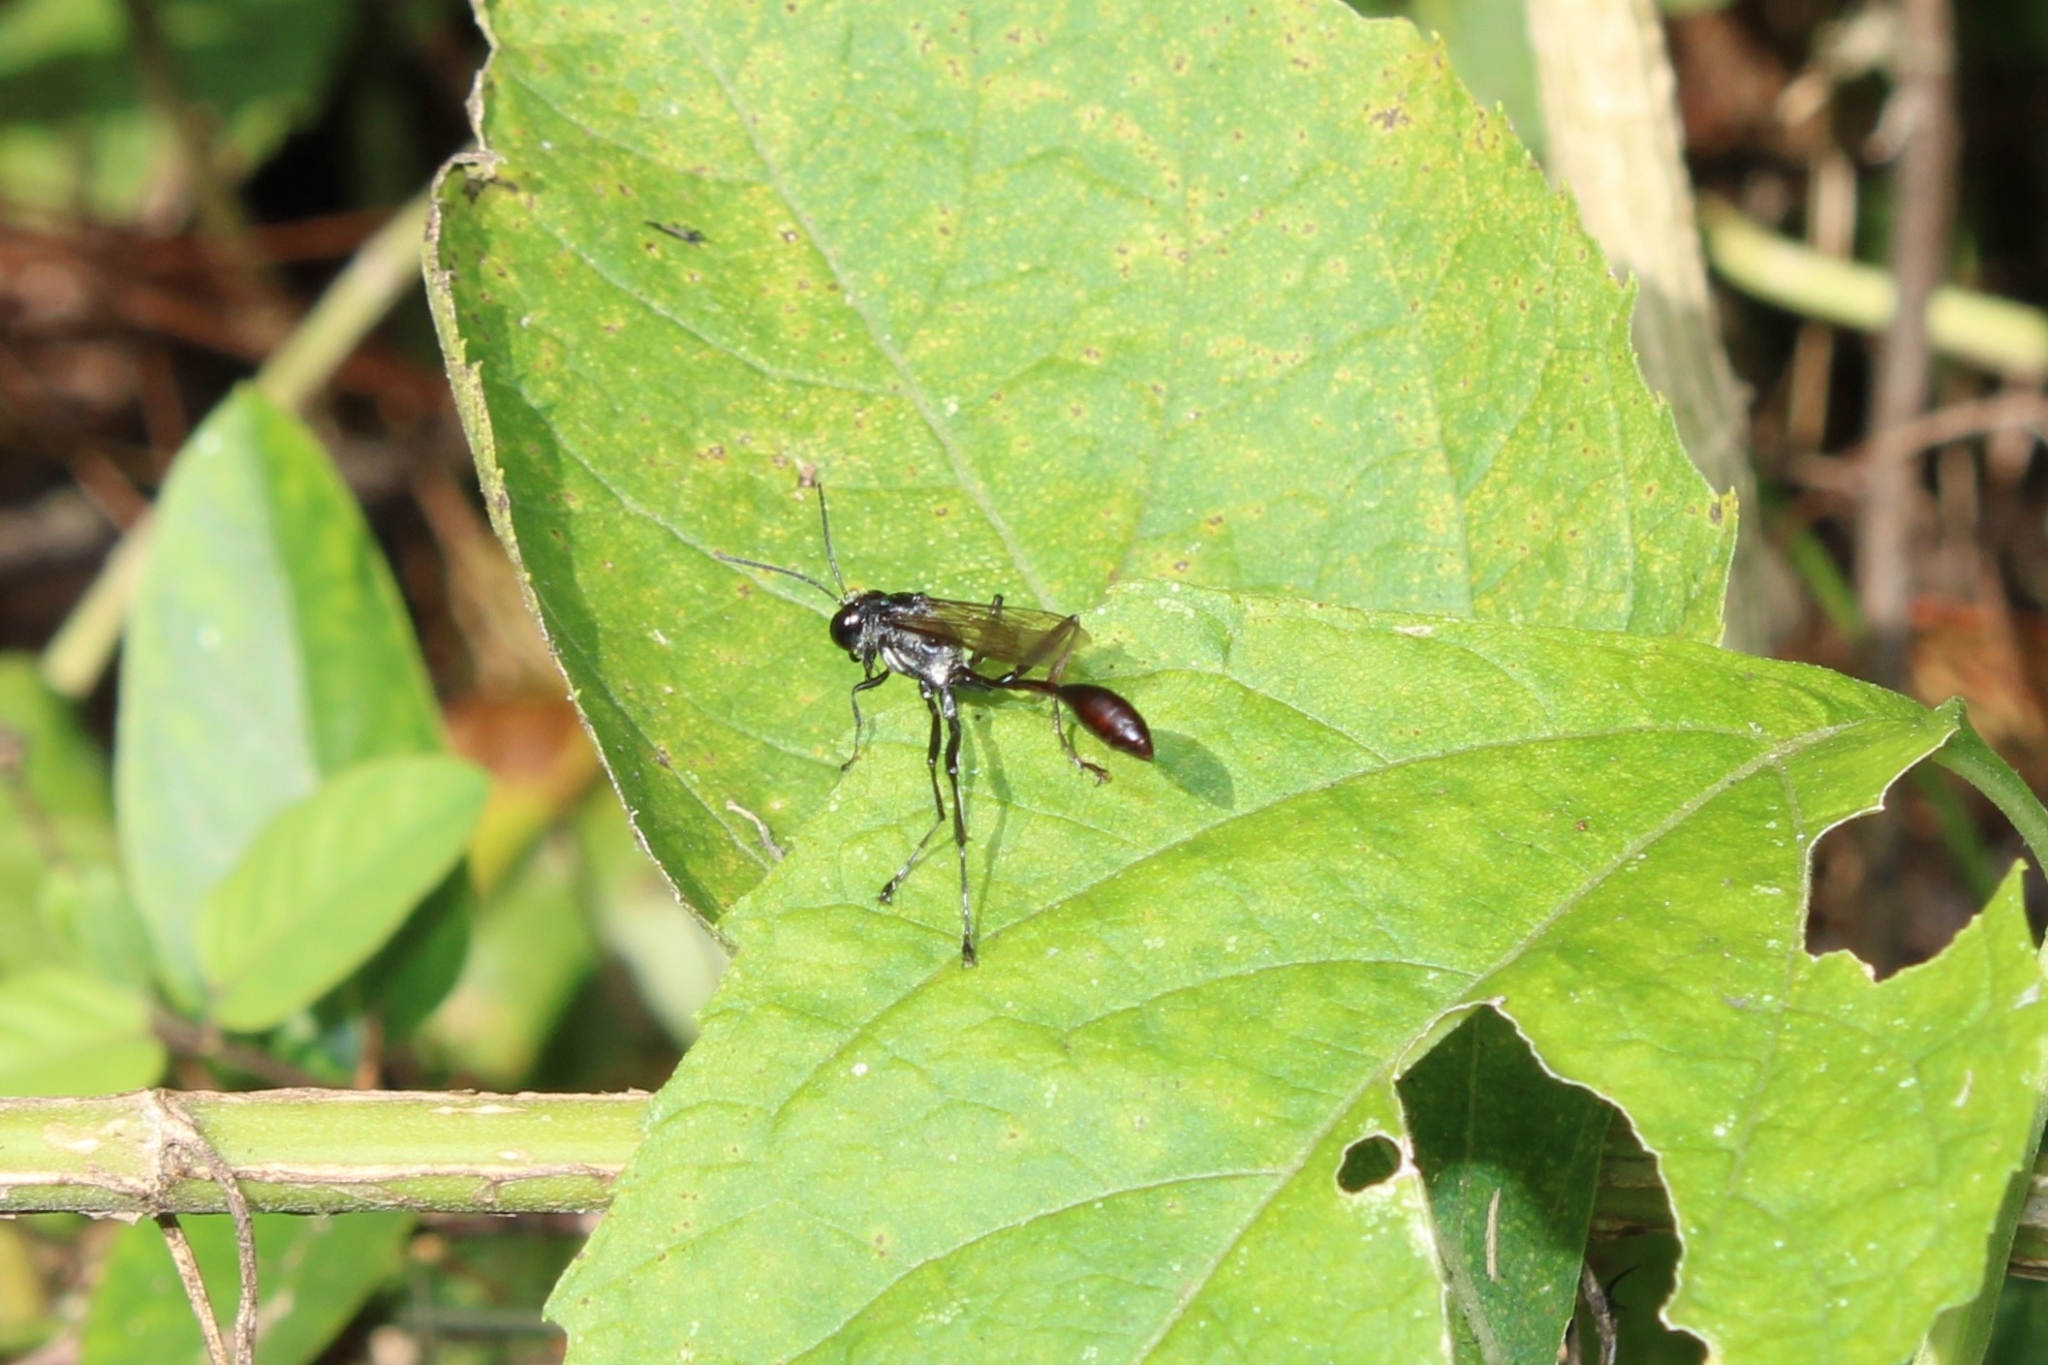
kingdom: Animalia
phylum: Arthropoda
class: Insecta
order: Hymenoptera
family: Sphecidae
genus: Eremnophila
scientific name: Eremnophila aureonotata
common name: Gold-marked thread-waisted wasp
